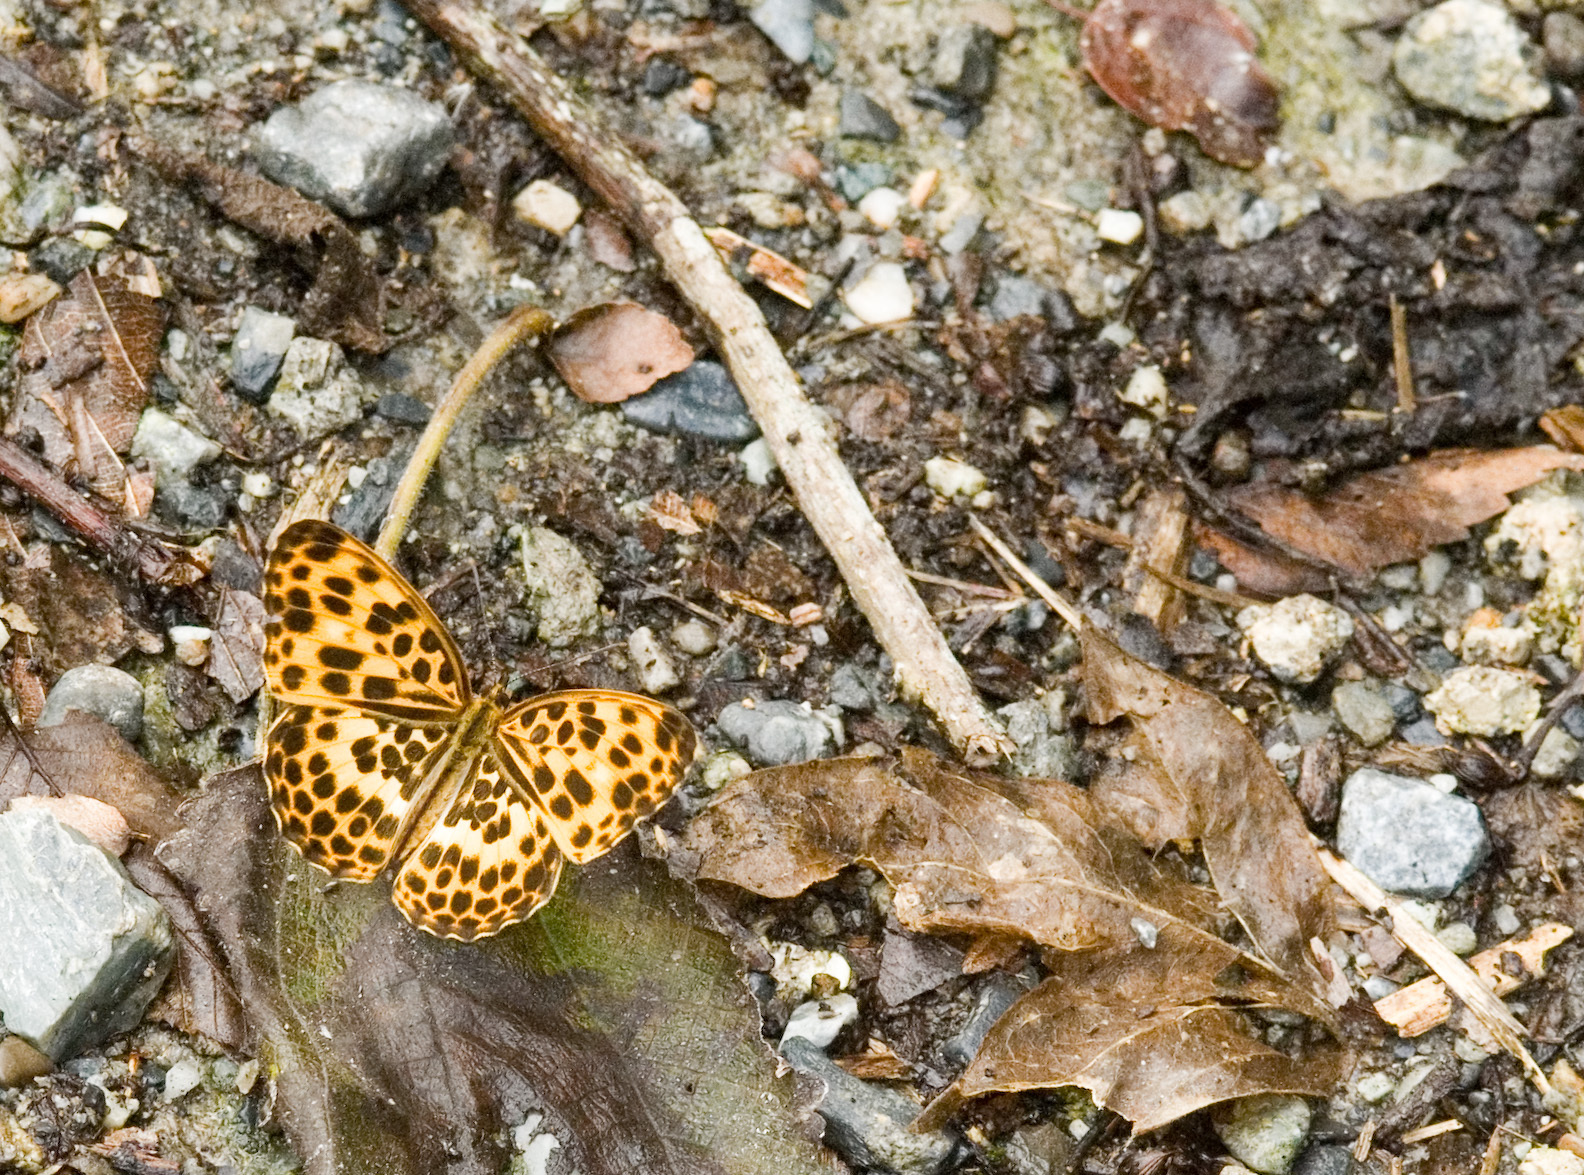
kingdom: Animalia
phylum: Arthropoda
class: Insecta
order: Lepidoptera
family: Nymphalidae
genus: Timelaea
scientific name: Timelaea albescens
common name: Beautiful leopard
